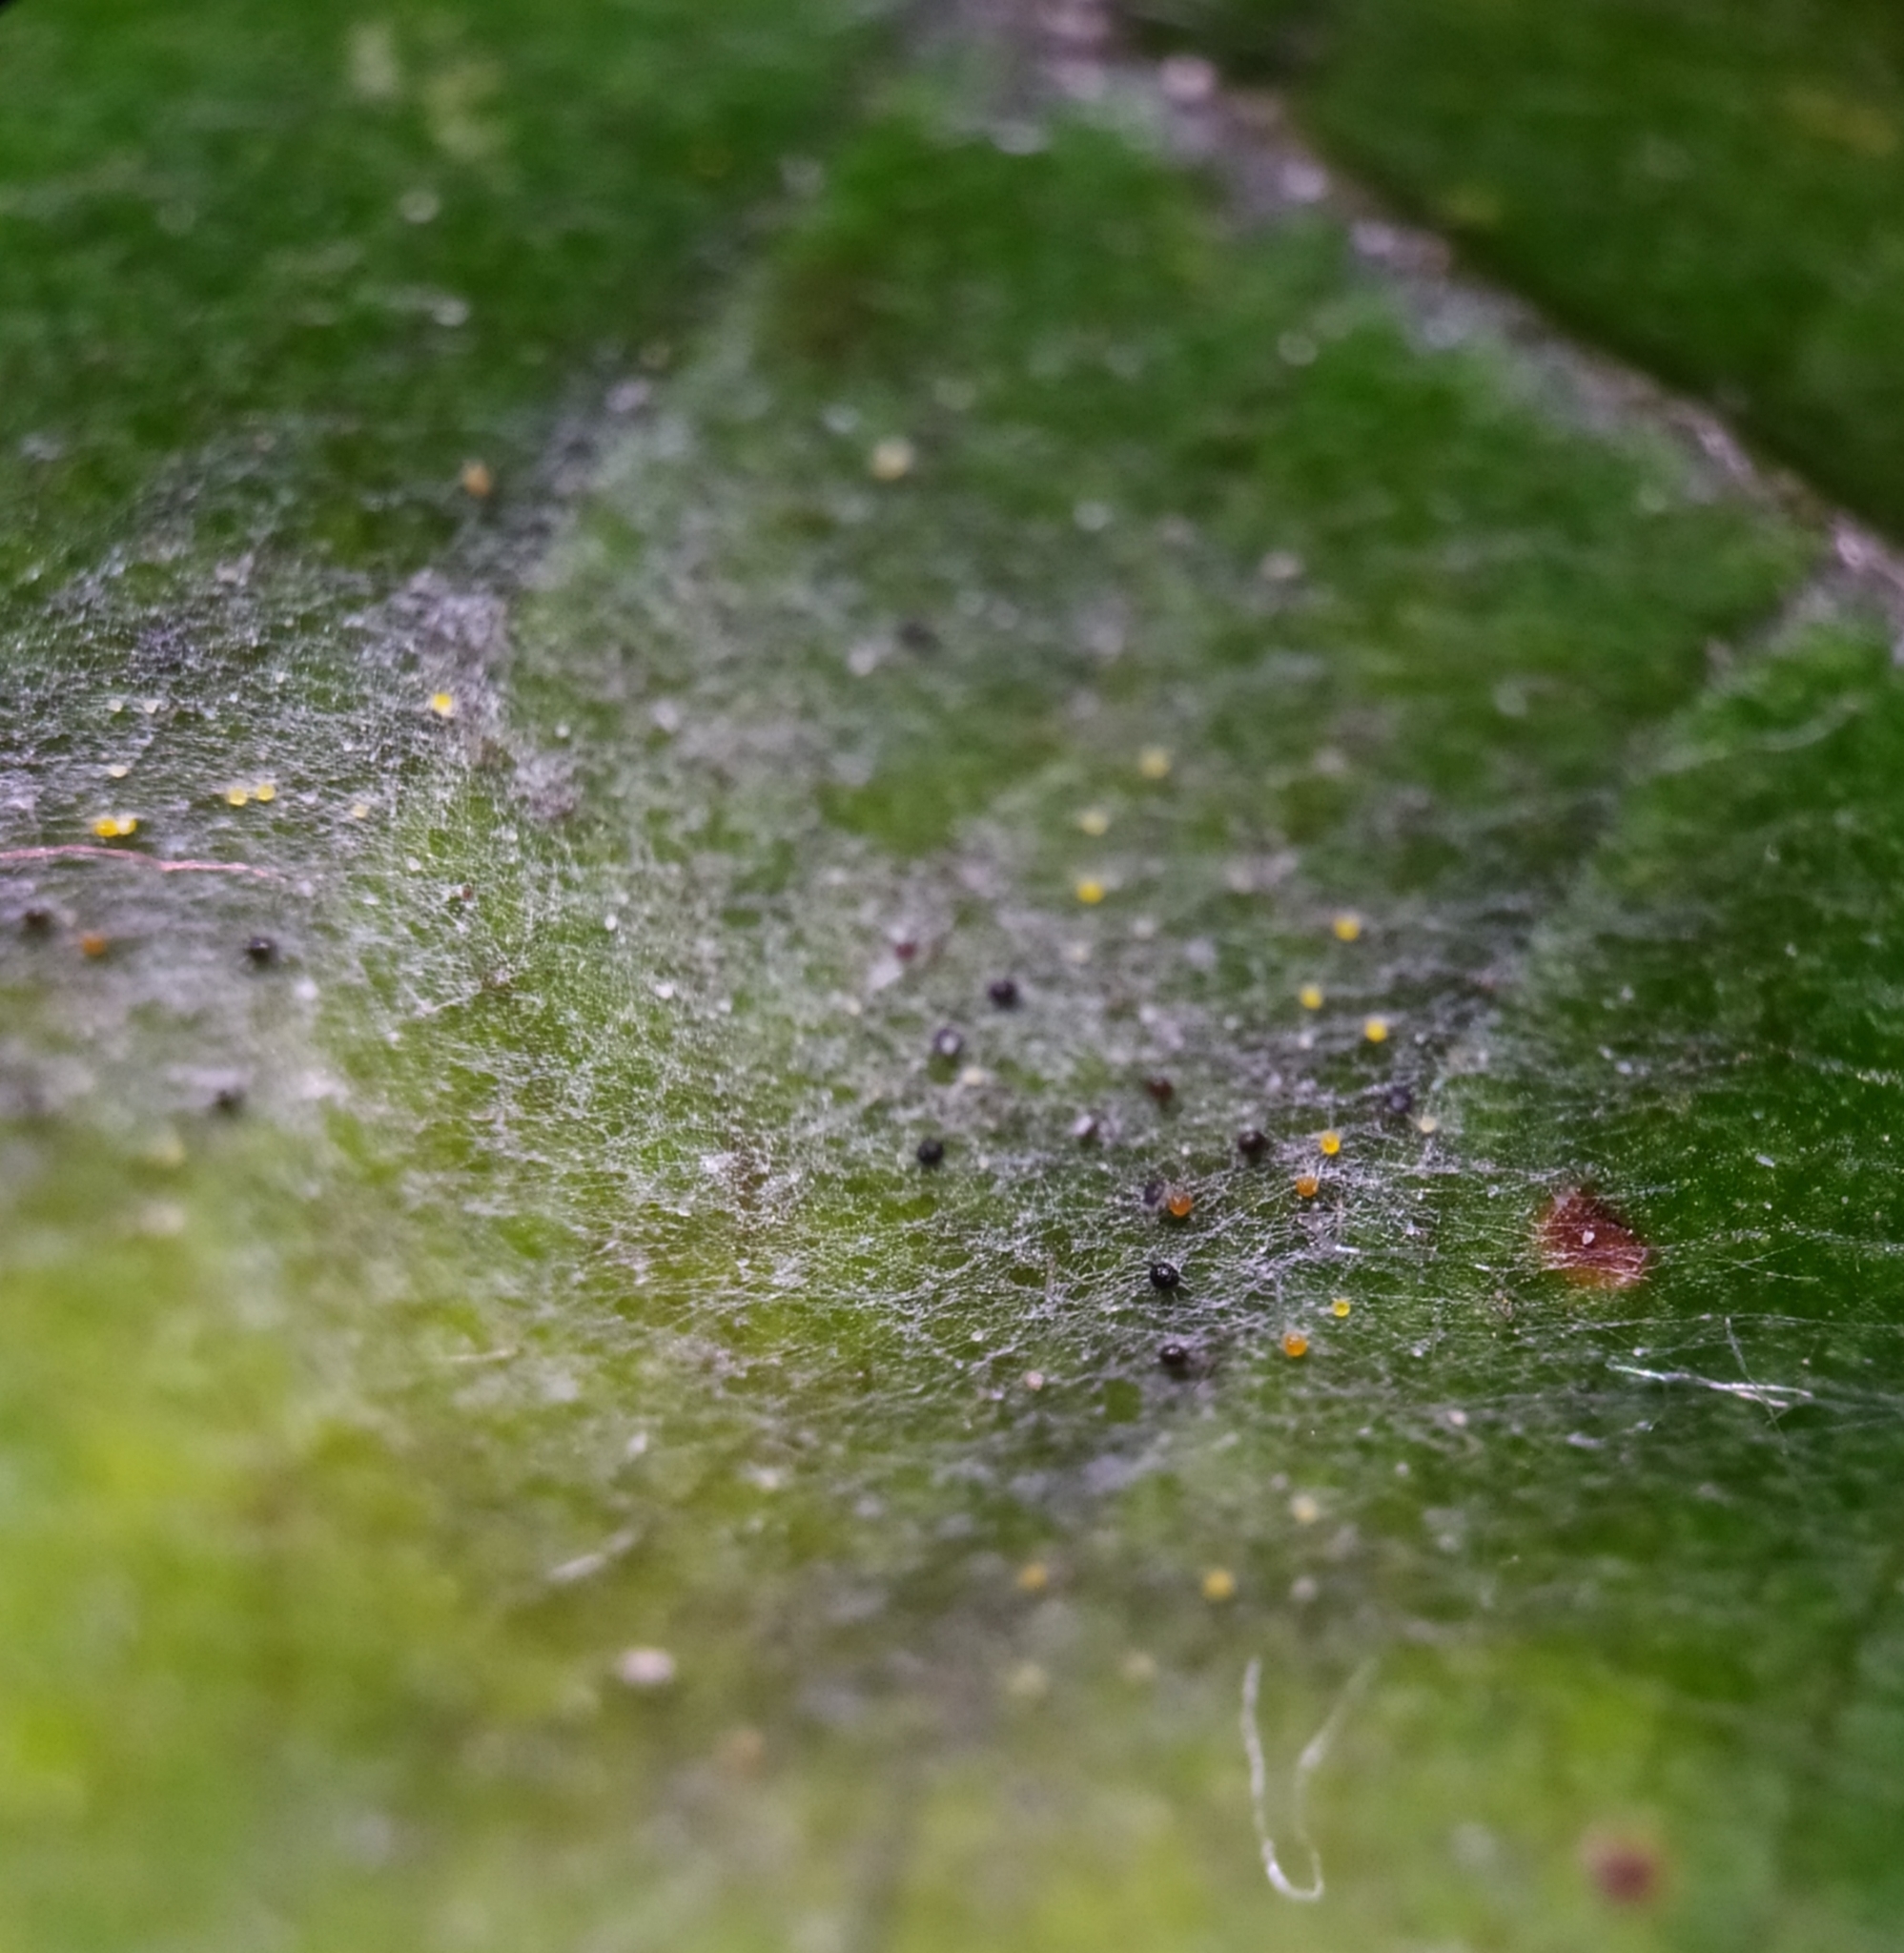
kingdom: Fungi
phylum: Ascomycota
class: Leotiomycetes
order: Helotiales
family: Erysiphaceae
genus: Erysiphe
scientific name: Erysiphe corylacearum
